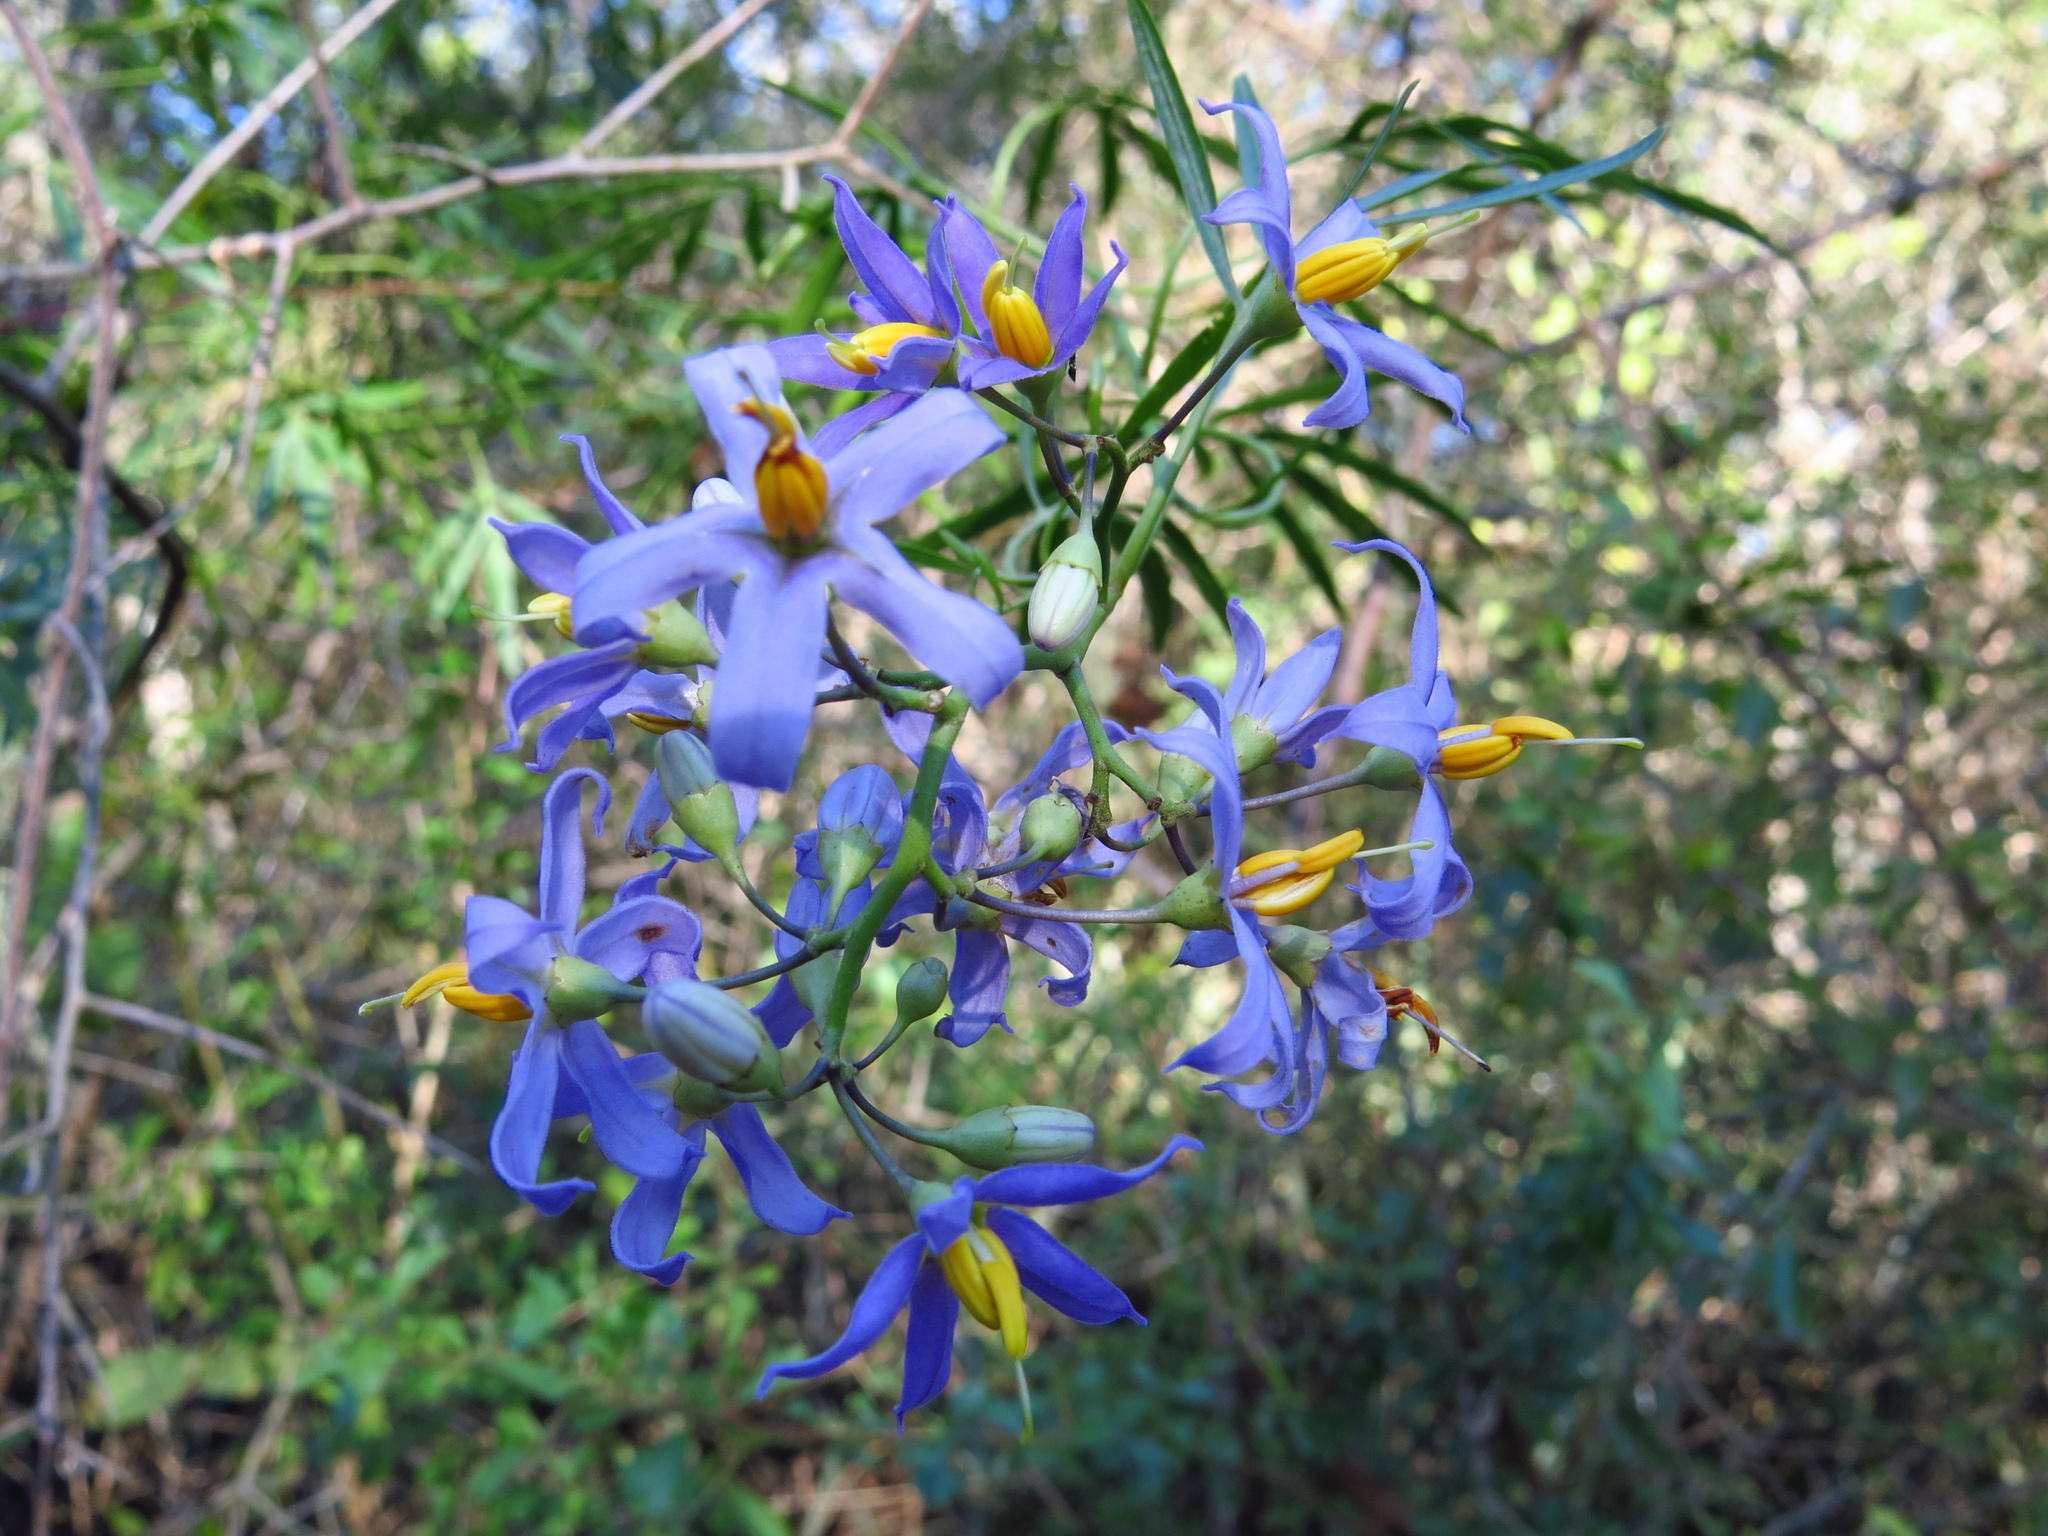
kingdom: Plantae
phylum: Tracheophyta
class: Magnoliopsida
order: Solanales
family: Solanaceae
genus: Solanum
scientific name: Solanum angustifidum
